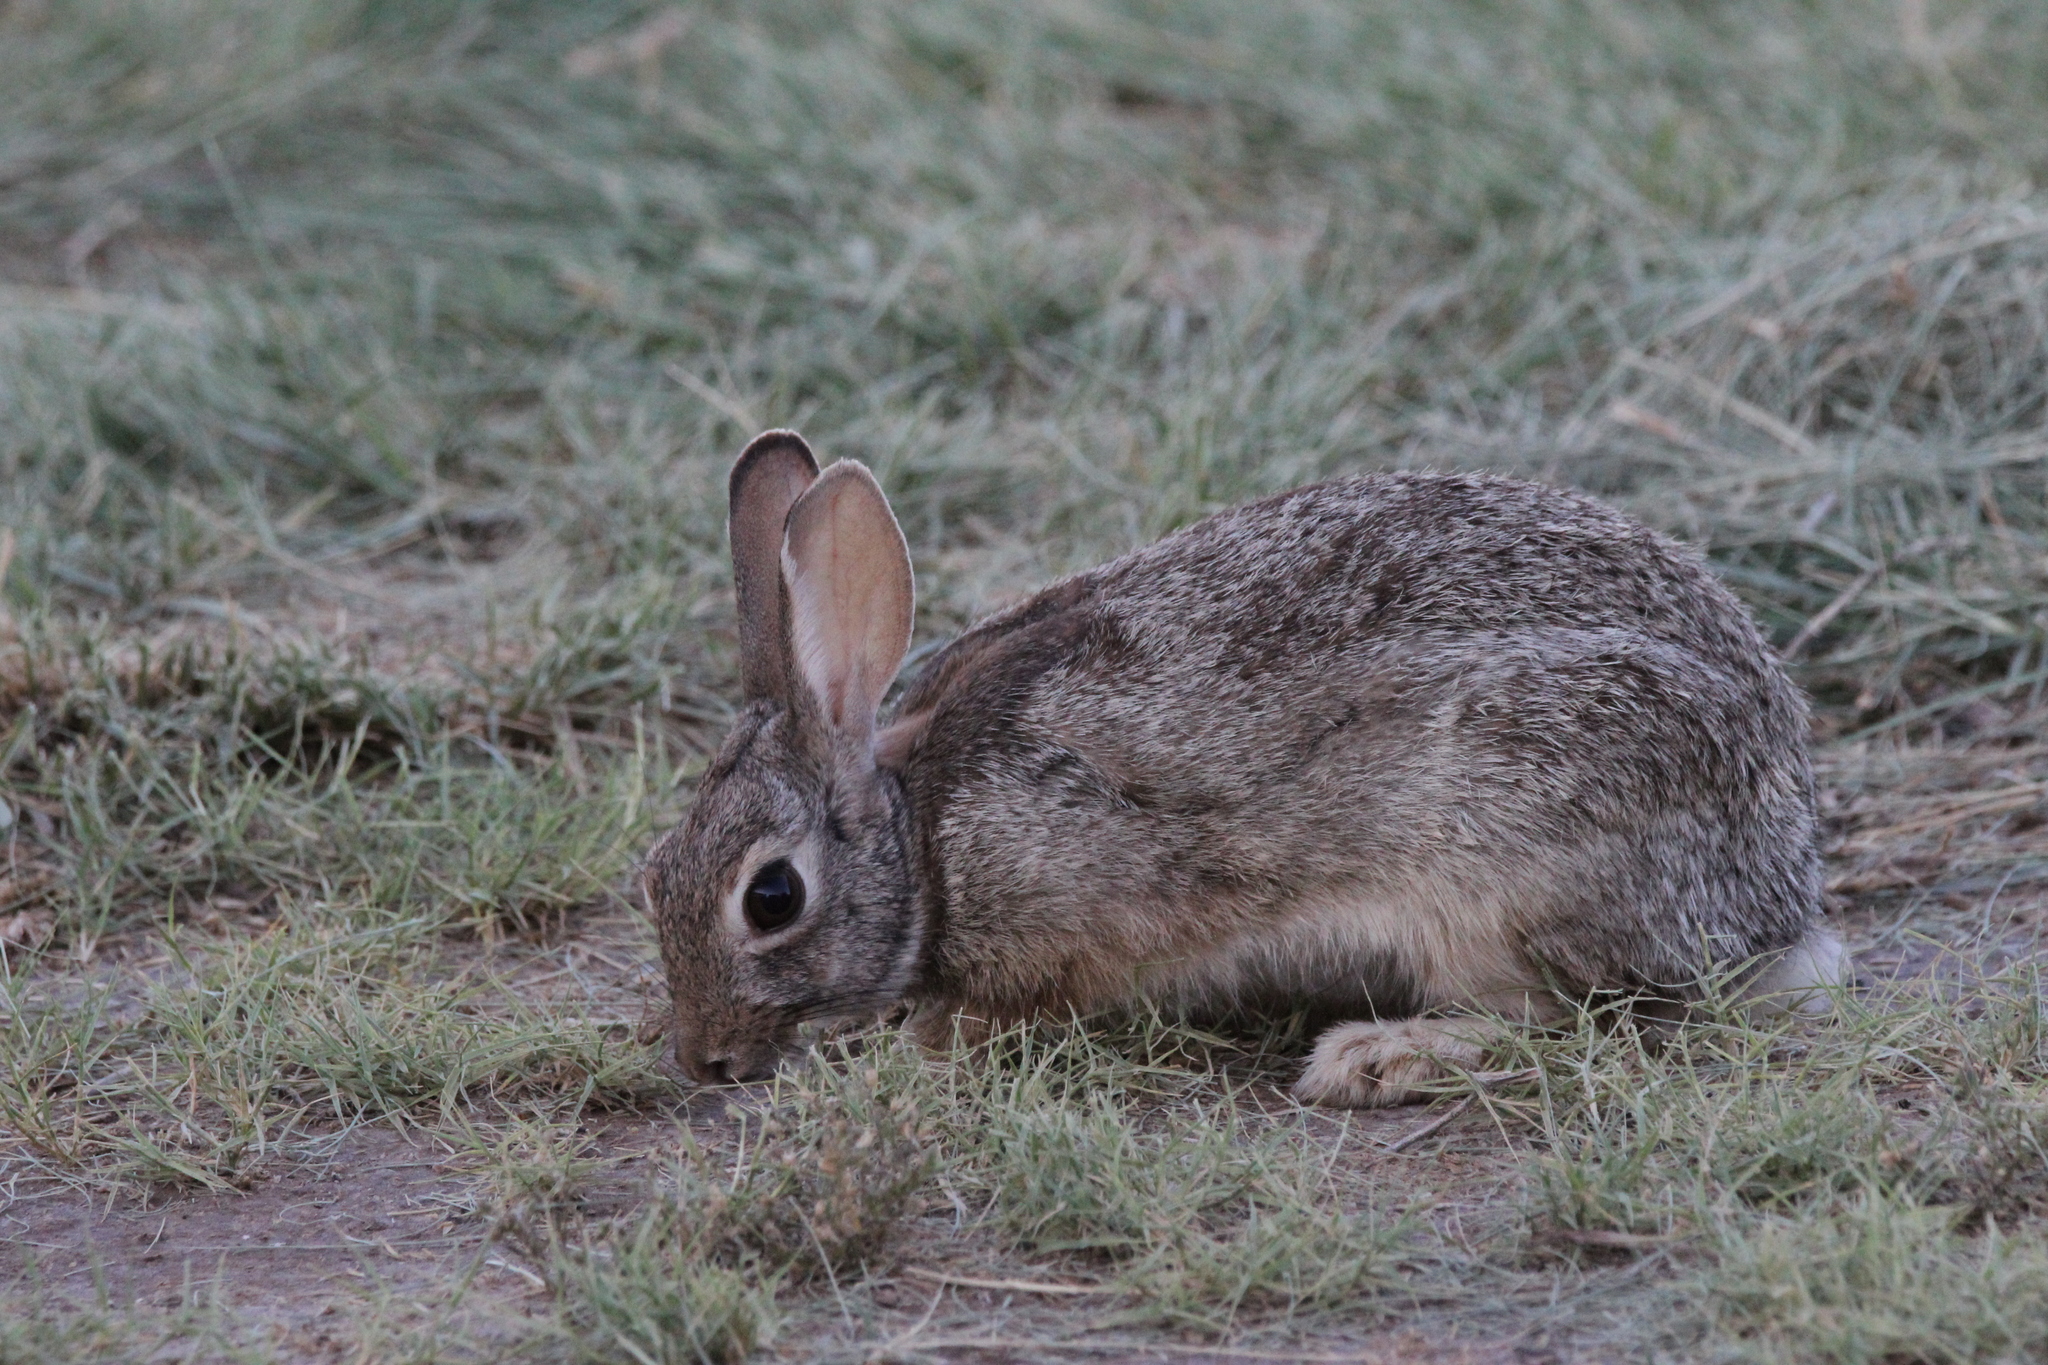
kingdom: Animalia
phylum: Chordata
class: Mammalia
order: Lagomorpha
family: Leporidae
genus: Sylvilagus
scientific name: Sylvilagus audubonii
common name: Desert cottontail
